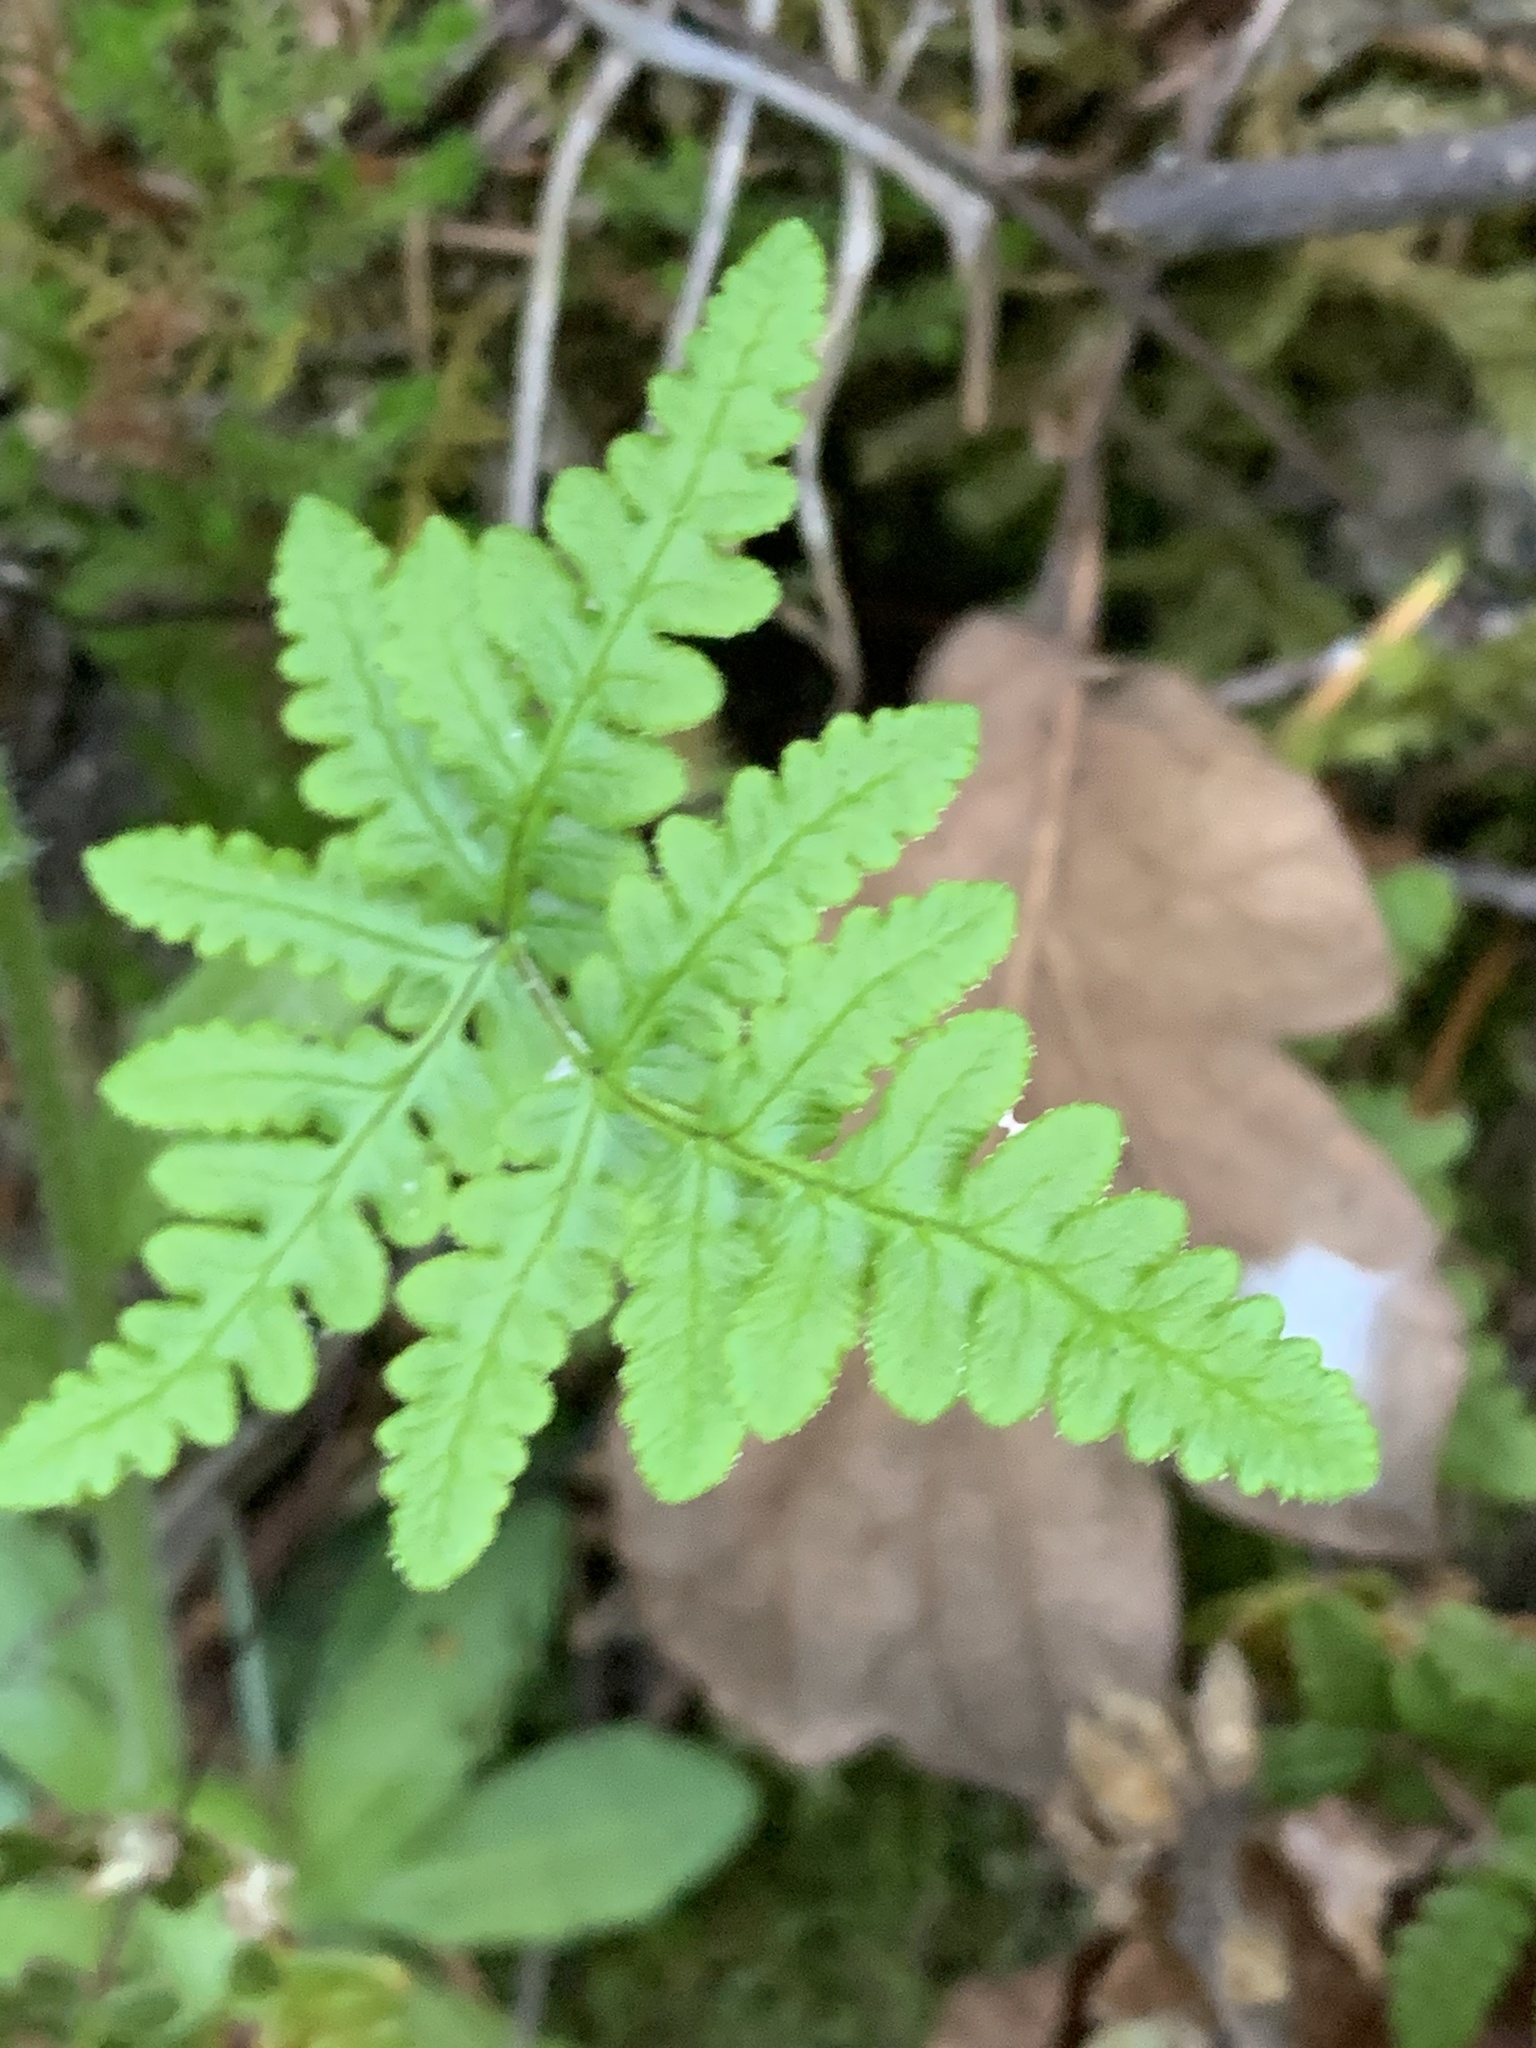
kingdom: Plantae
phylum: Tracheophyta
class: Polypodiopsida
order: Polypodiales
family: Pteridaceae
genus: Pentagramma
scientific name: Pentagramma triangularis
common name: Gold fern
